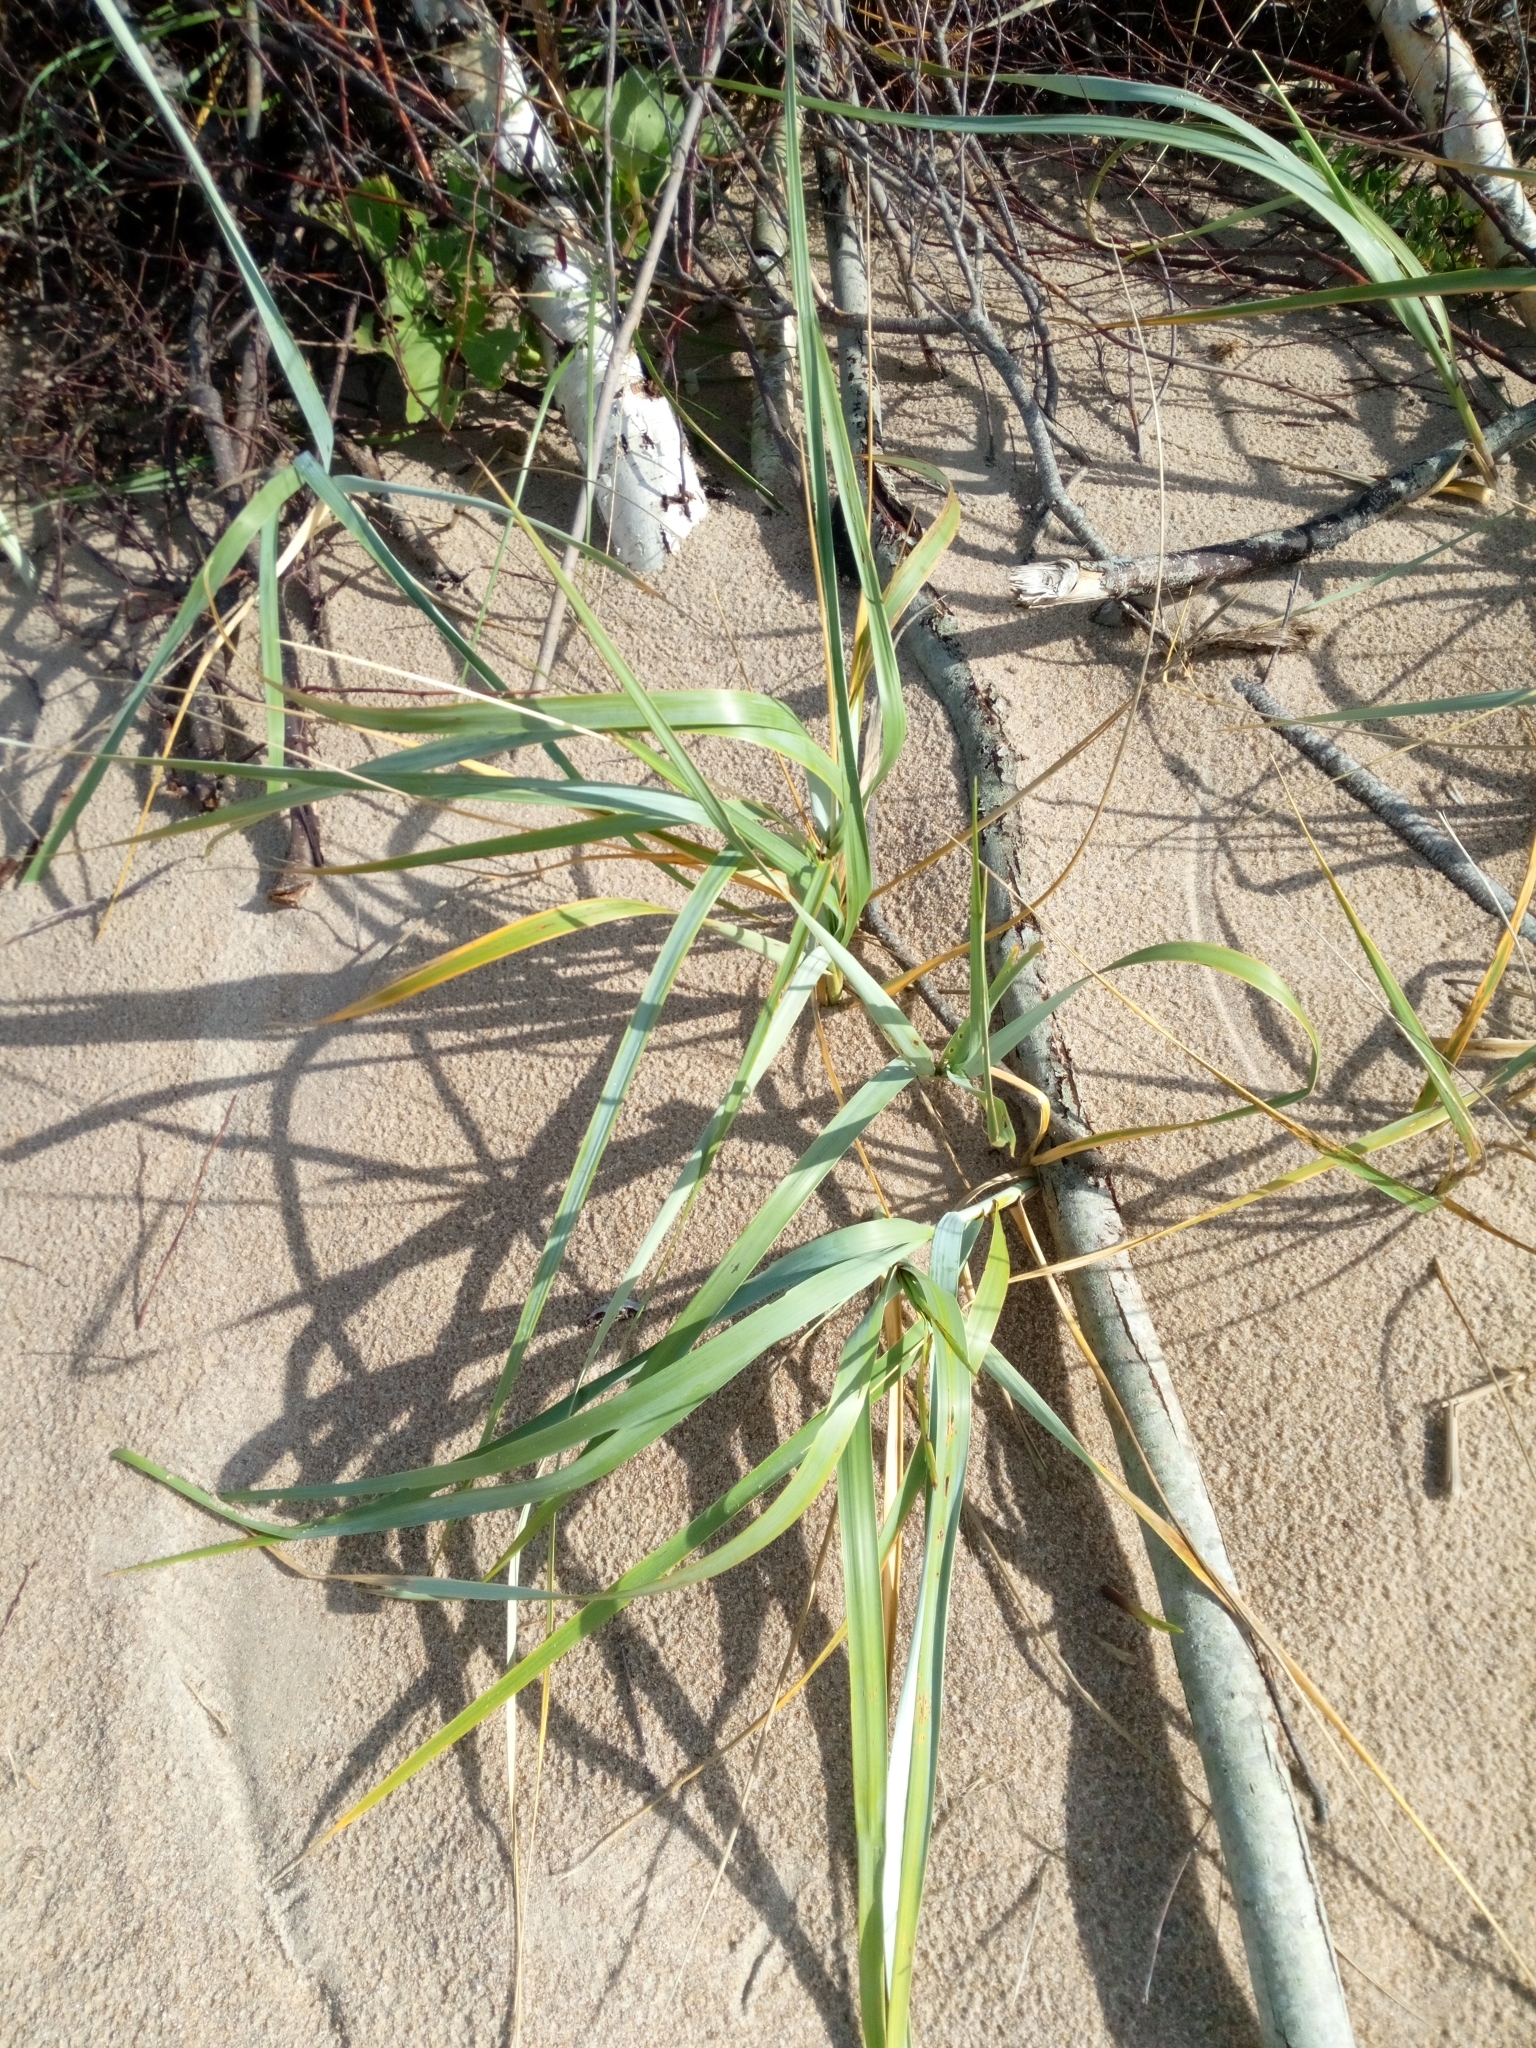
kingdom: Plantae
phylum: Tracheophyta
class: Liliopsida
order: Poales
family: Poaceae
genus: Leymus
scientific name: Leymus arenarius
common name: Lyme-grass
